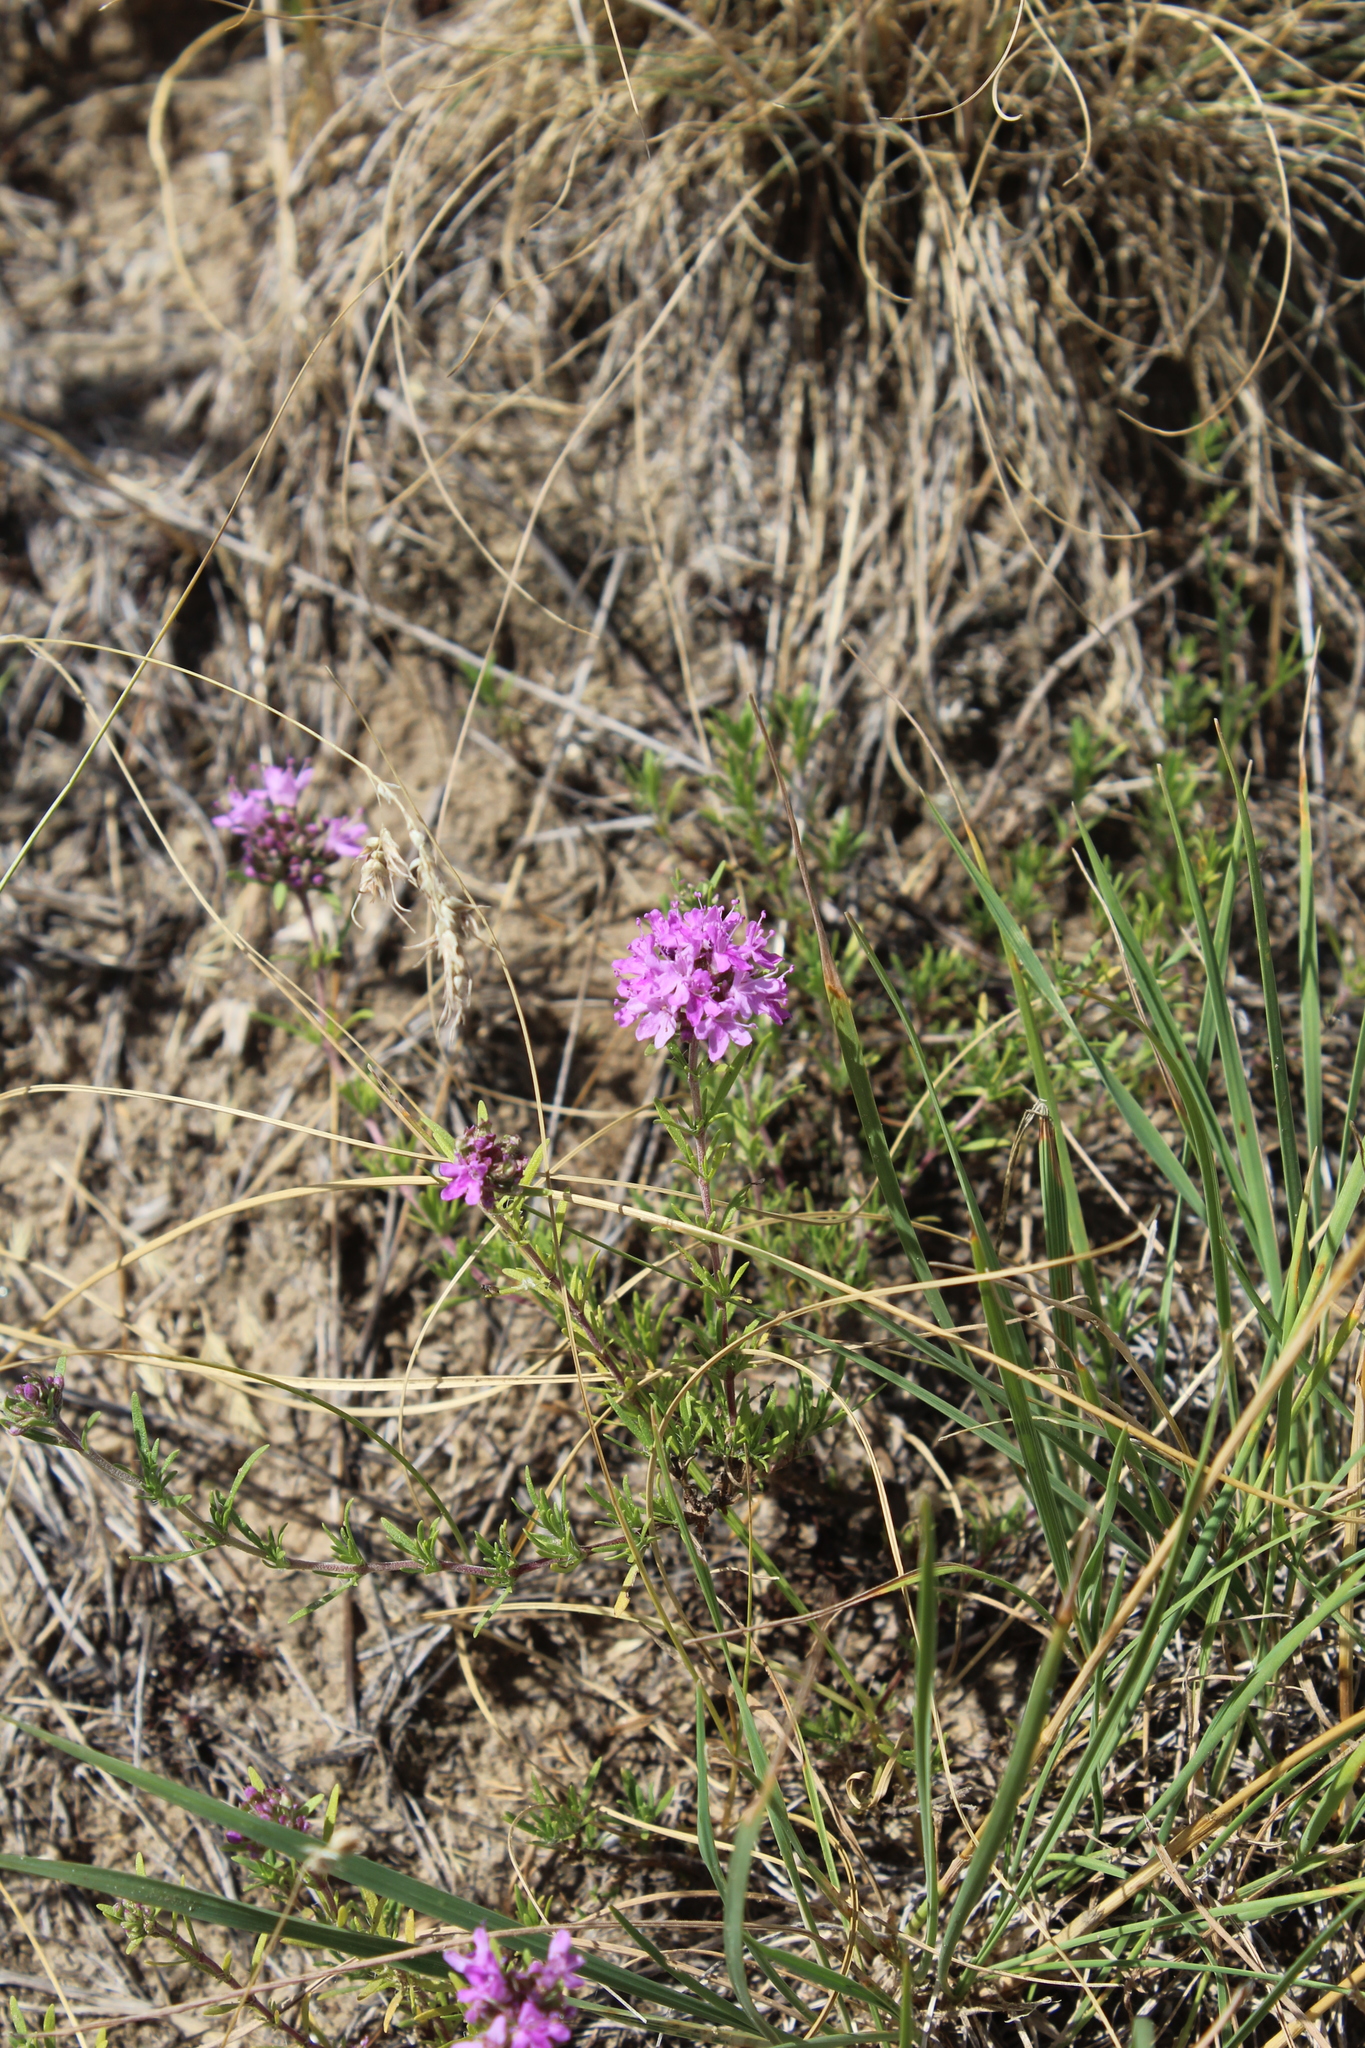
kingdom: Plantae
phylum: Tracheophyta
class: Magnoliopsida
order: Lamiales
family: Lamiaceae
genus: Thymus
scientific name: Thymus pallasianus
